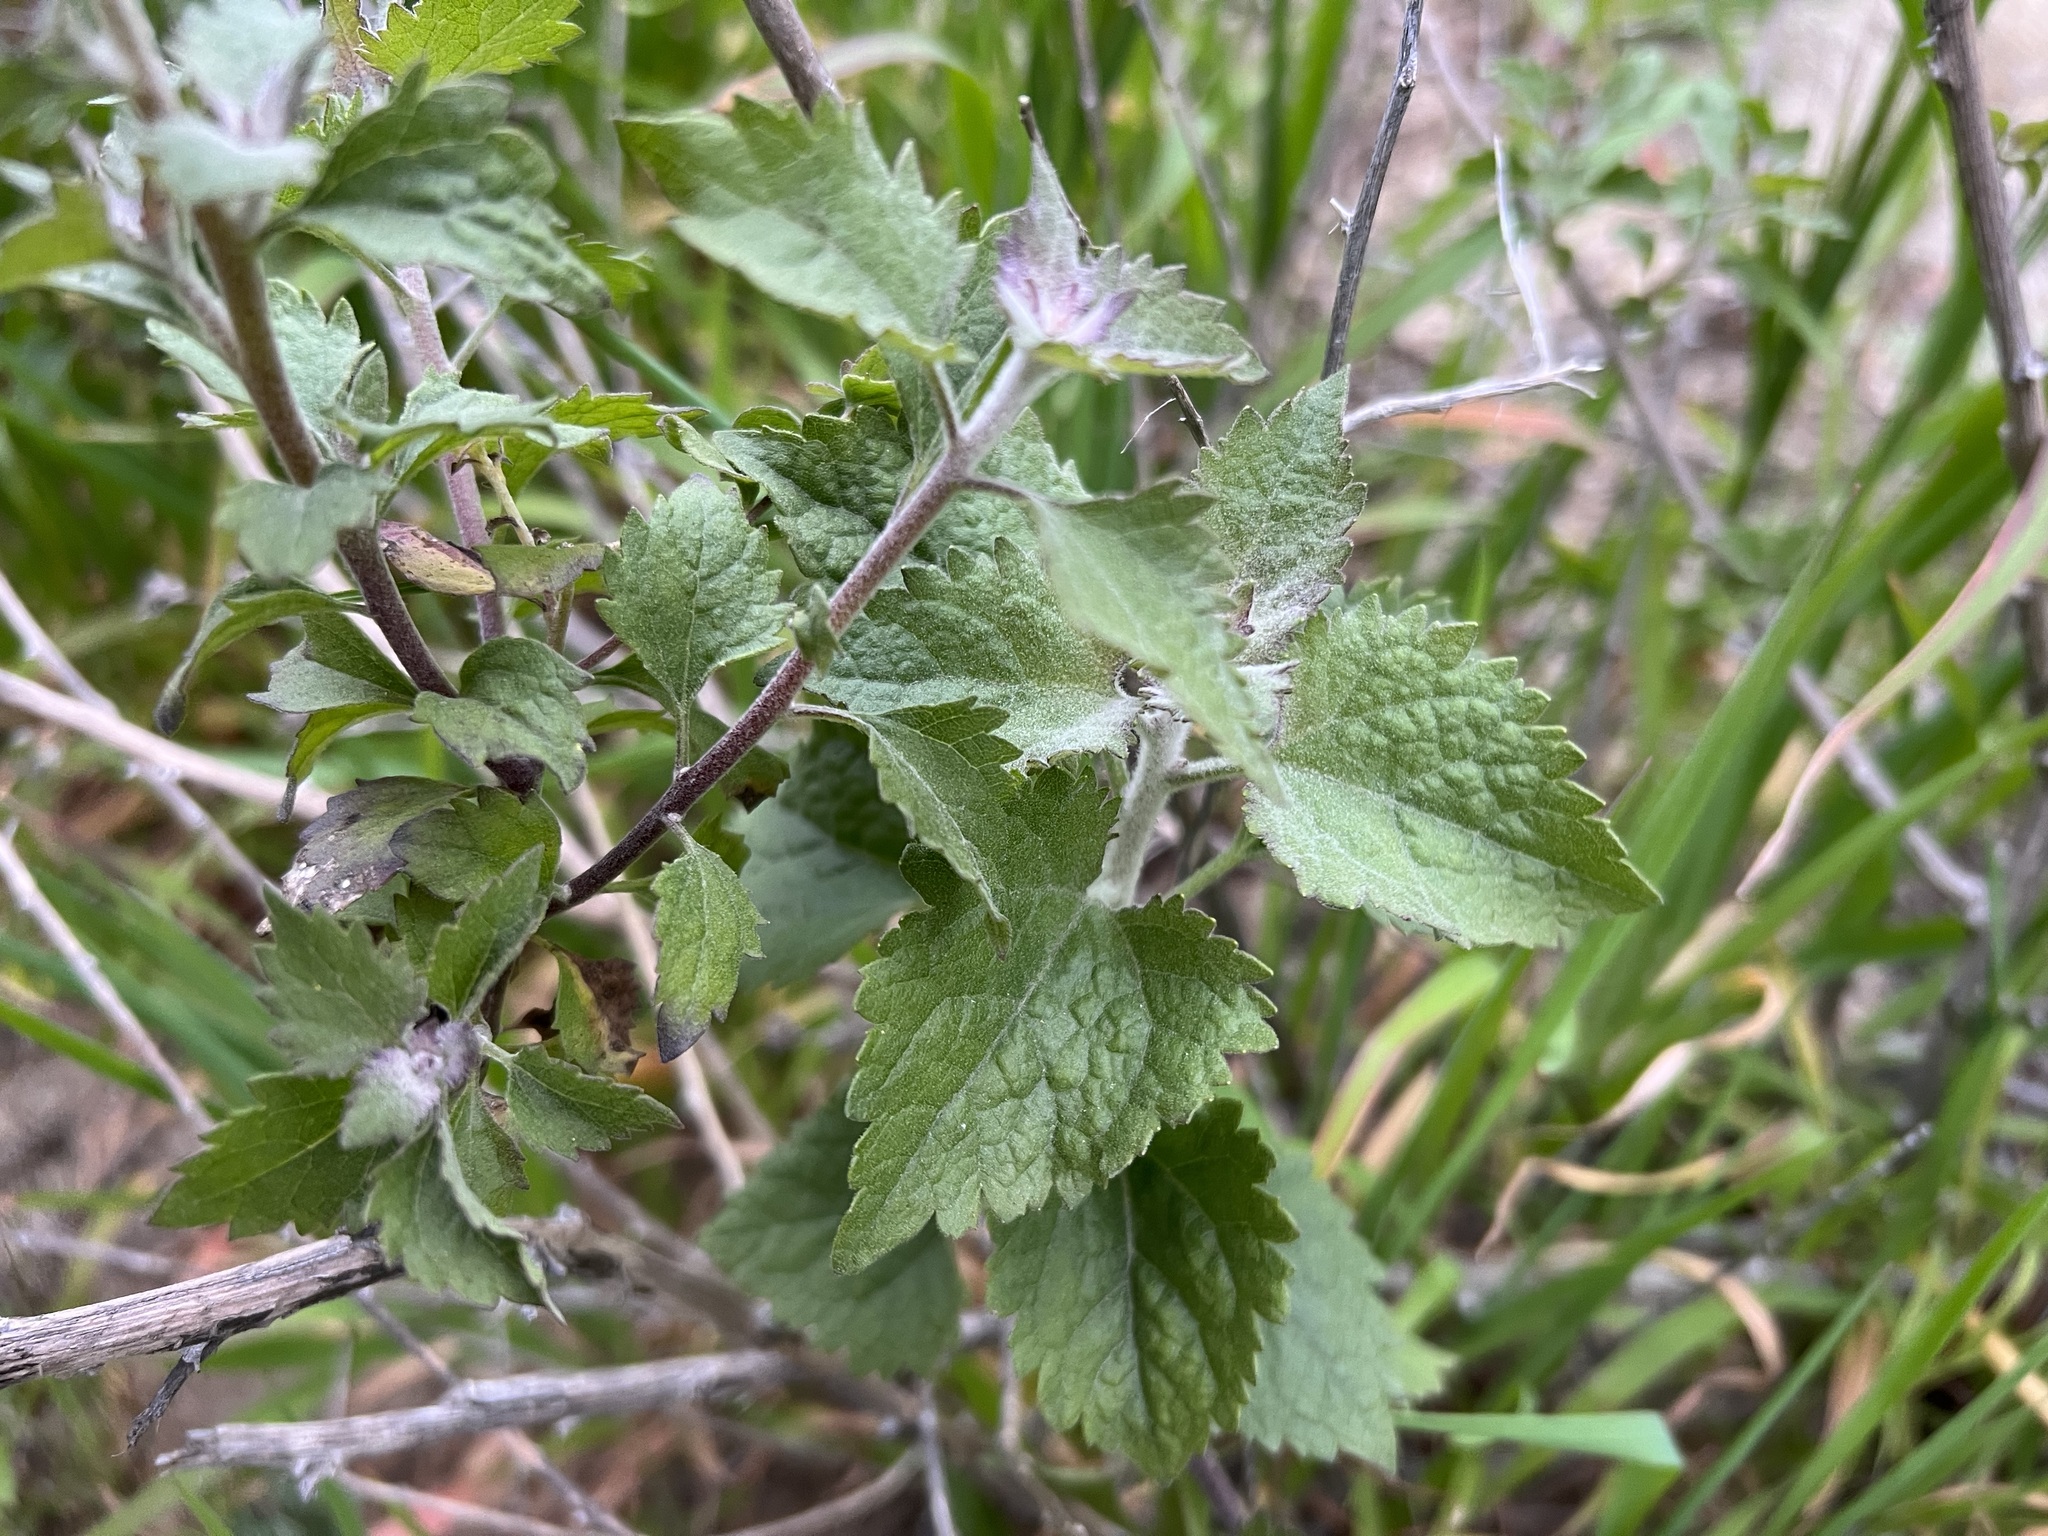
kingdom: Plantae
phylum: Tracheophyta
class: Magnoliopsida
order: Asterales
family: Asteraceae
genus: Brickellia
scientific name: Brickellia californica
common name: California brickellbush
